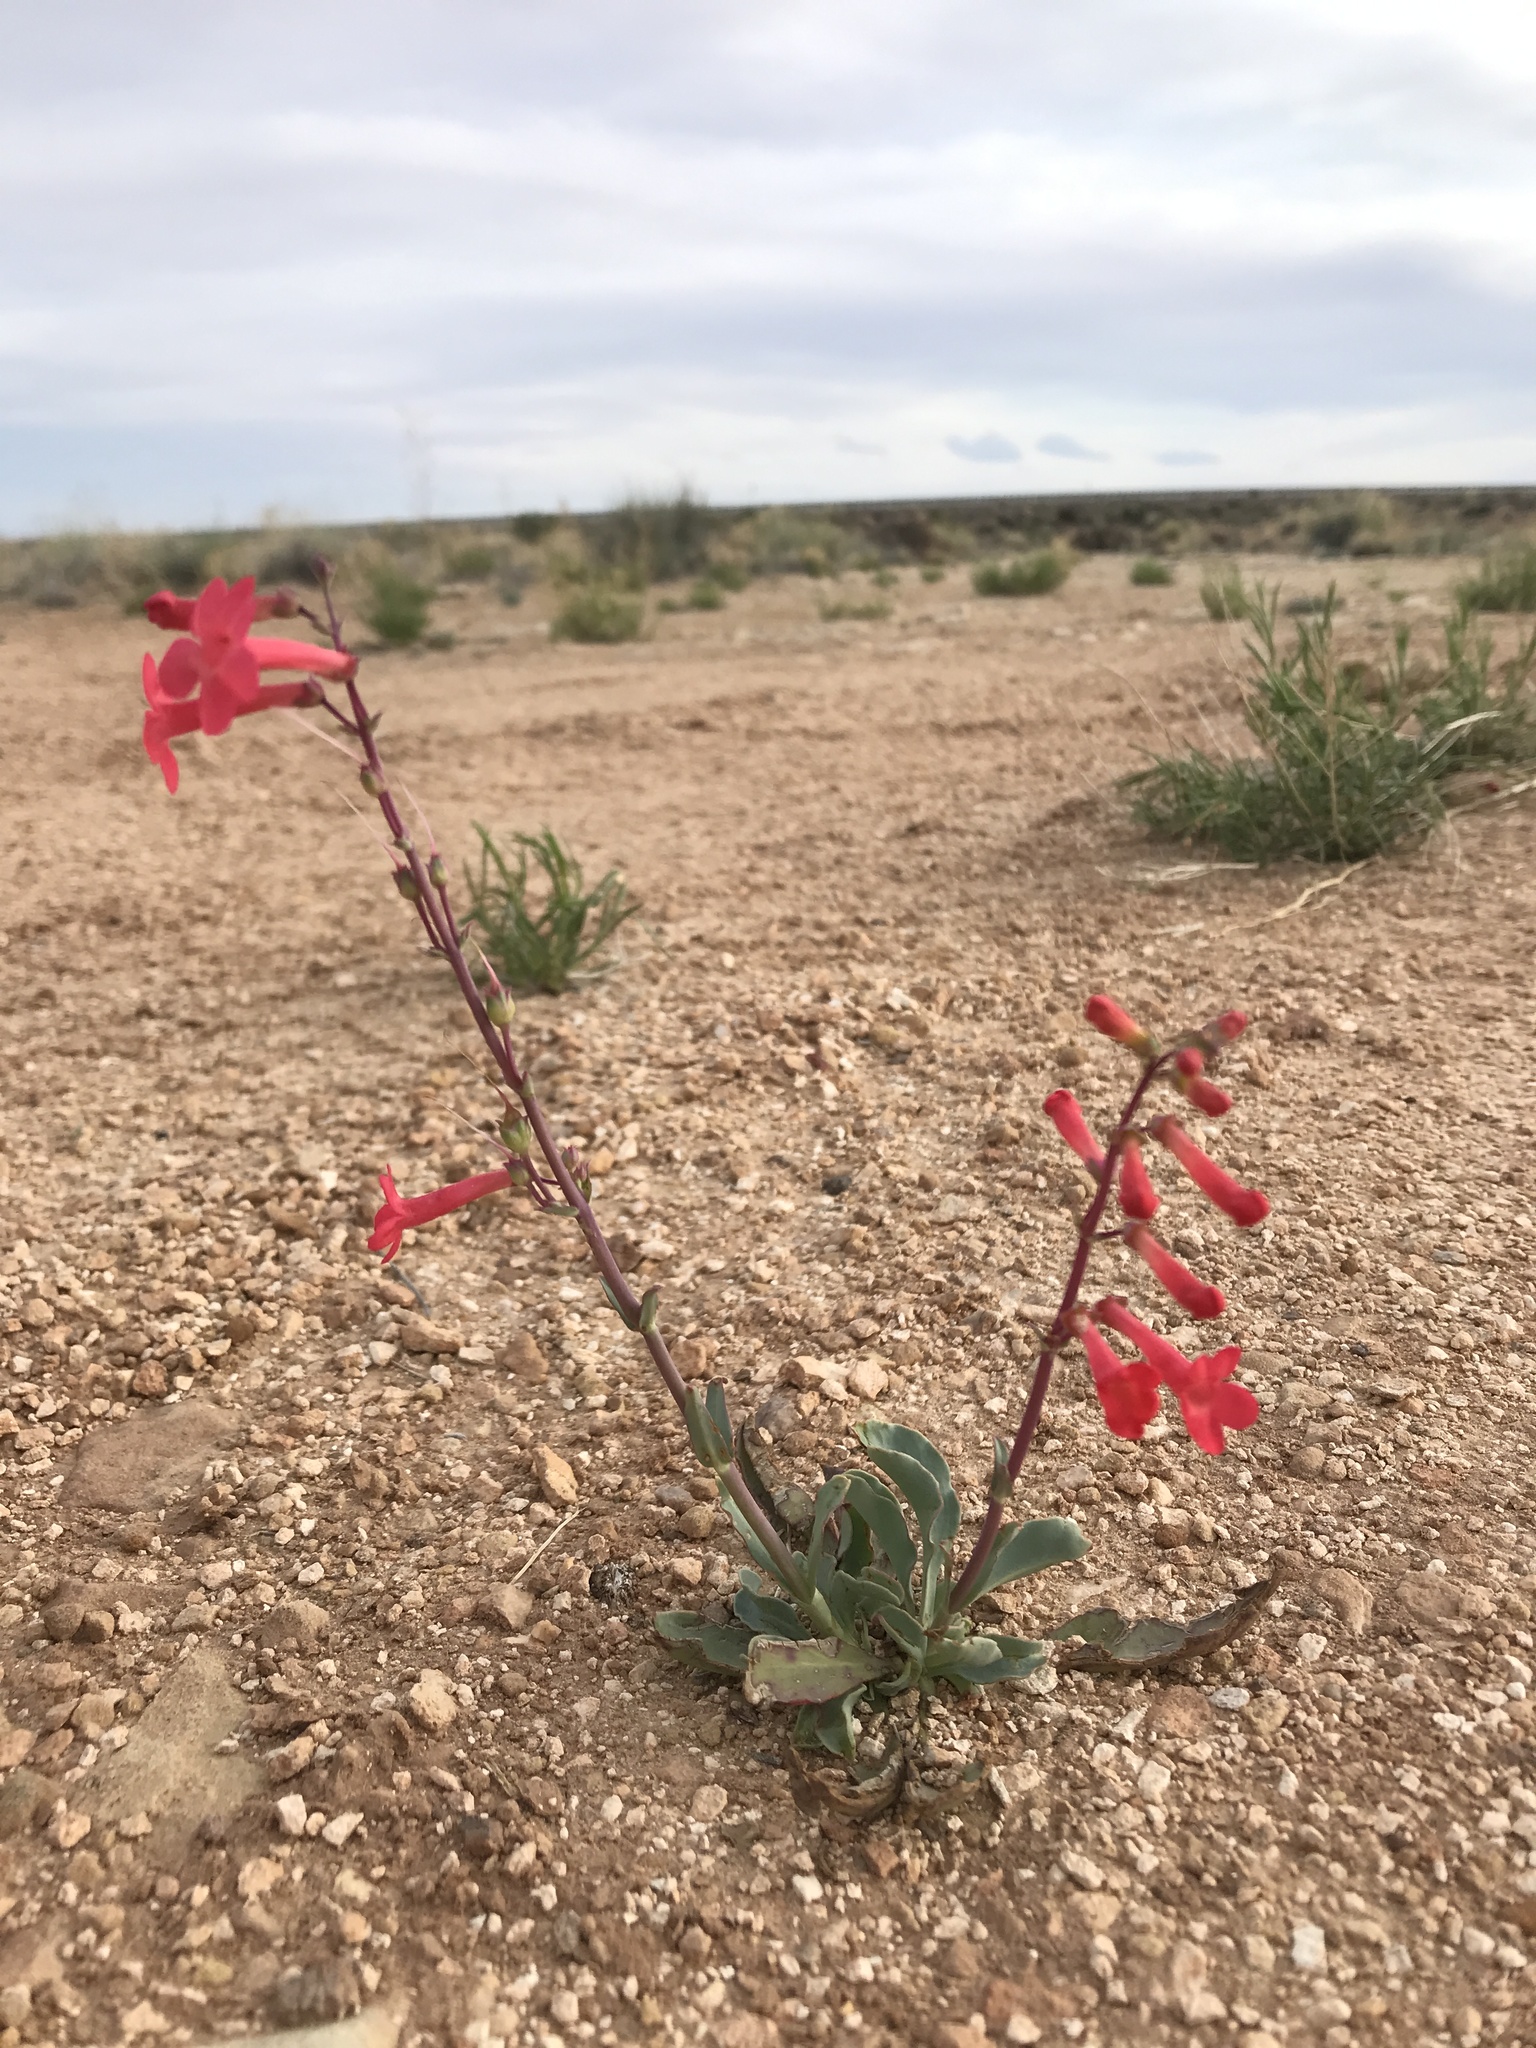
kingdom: Plantae
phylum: Tracheophyta
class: Magnoliopsida
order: Lamiales
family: Plantaginaceae
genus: Penstemon
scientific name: Penstemon utahensis
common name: Utah penstemon
